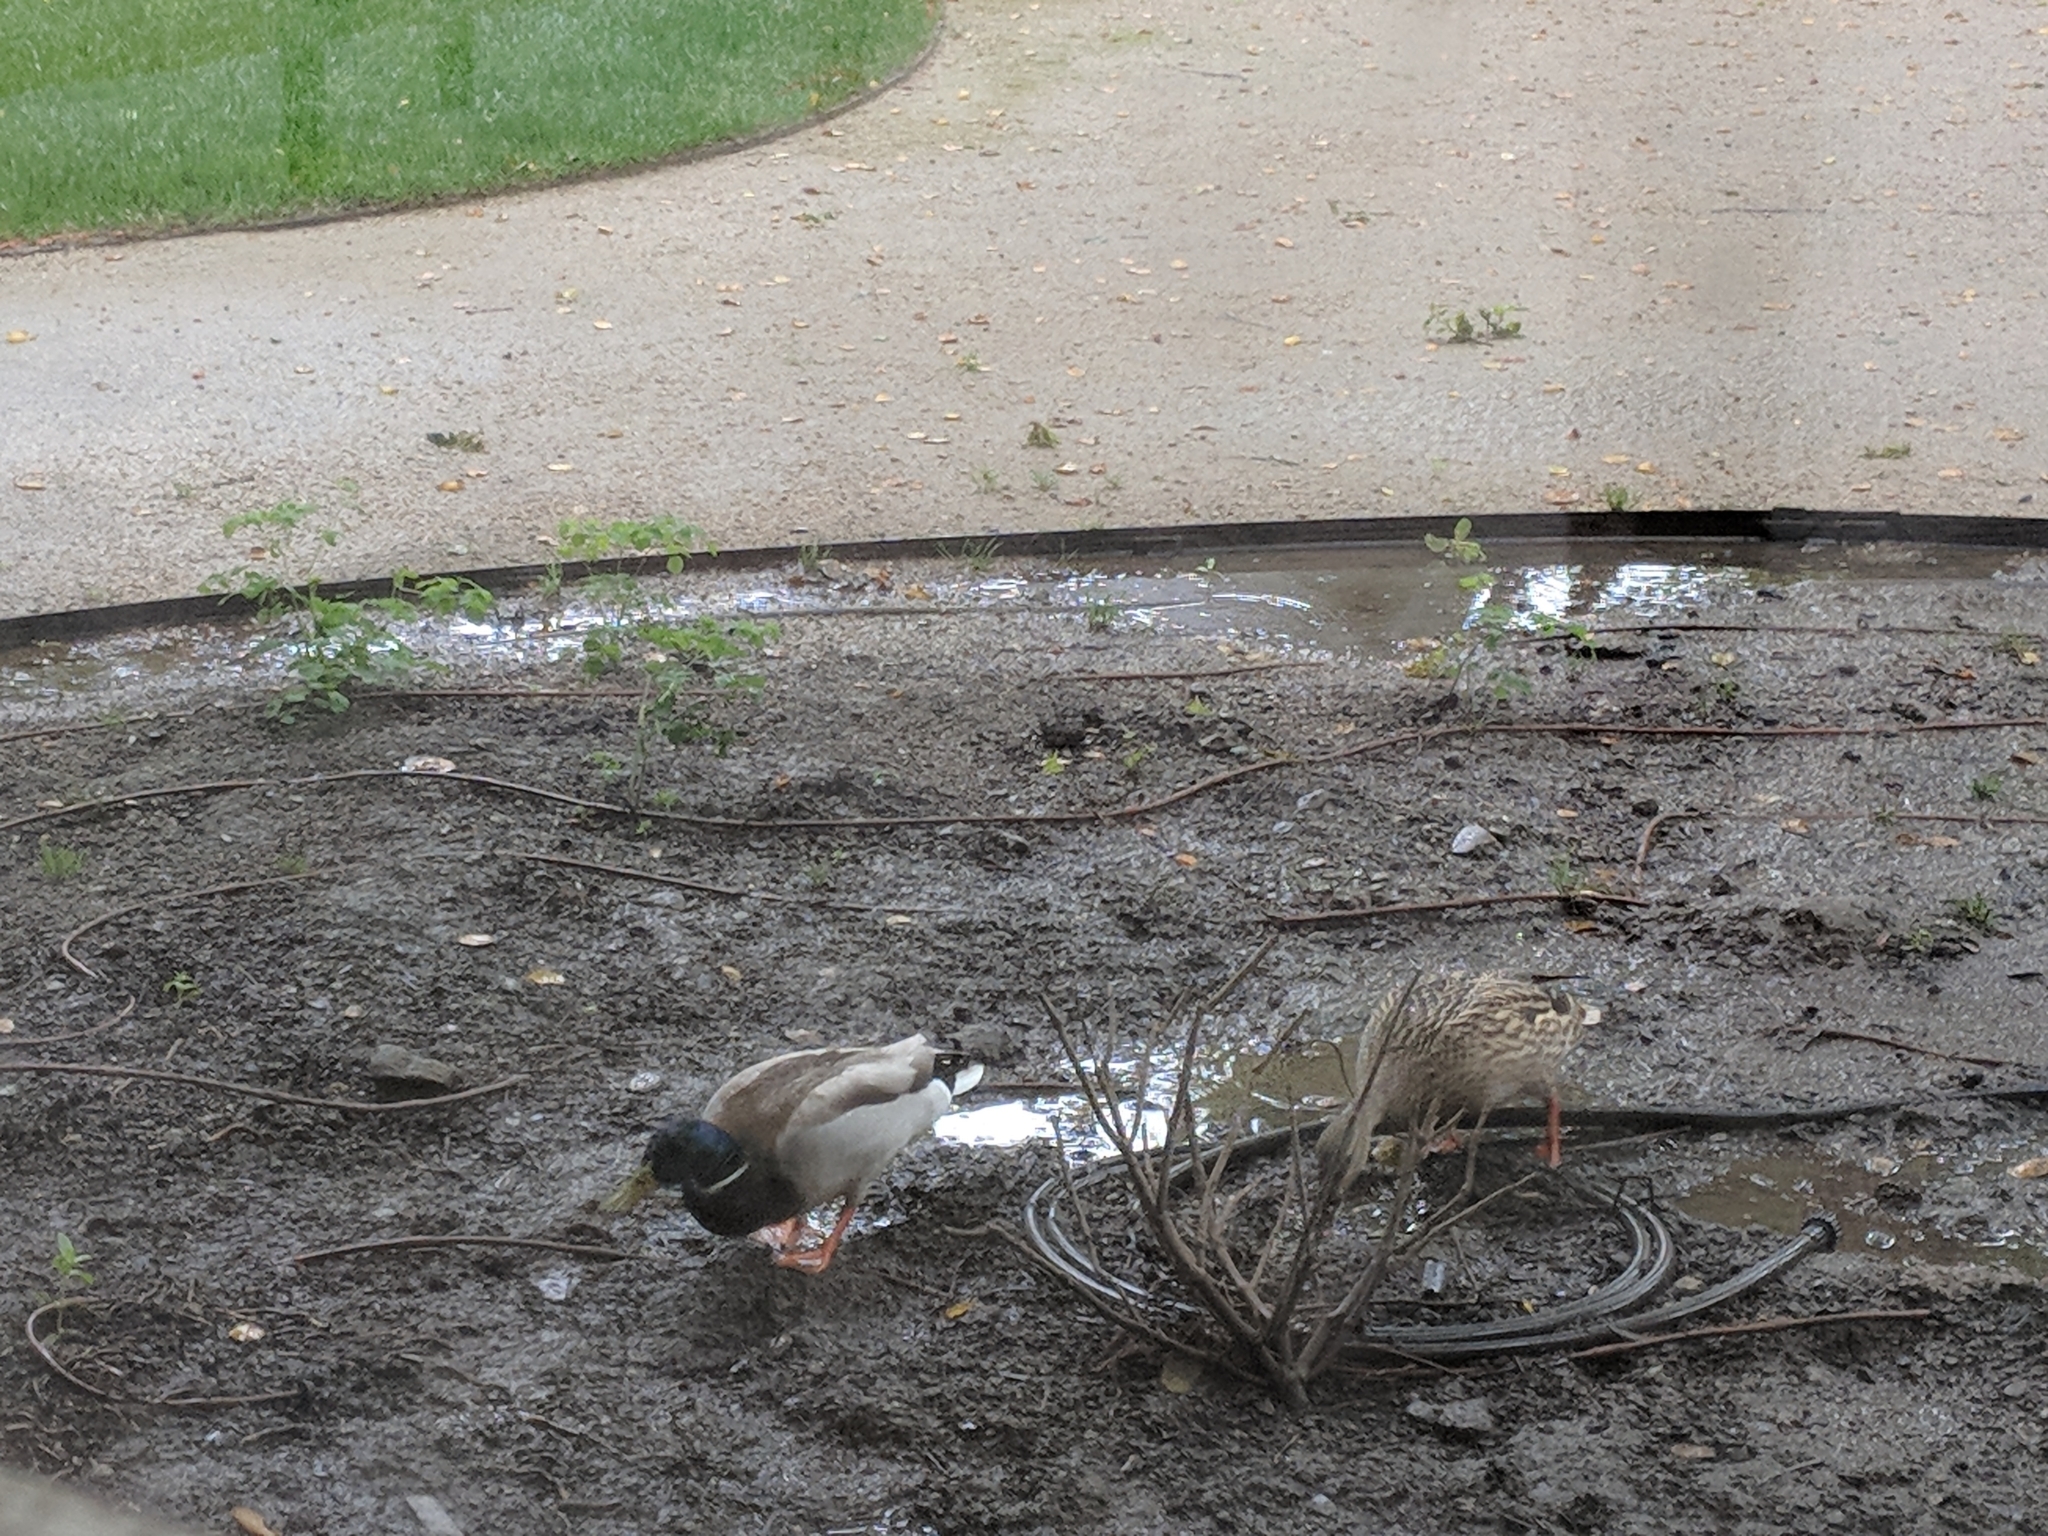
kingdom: Animalia
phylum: Chordata
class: Aves
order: Anseriformes
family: Anatidae
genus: Anas
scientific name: Anas platyrhynchos
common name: Mallard
